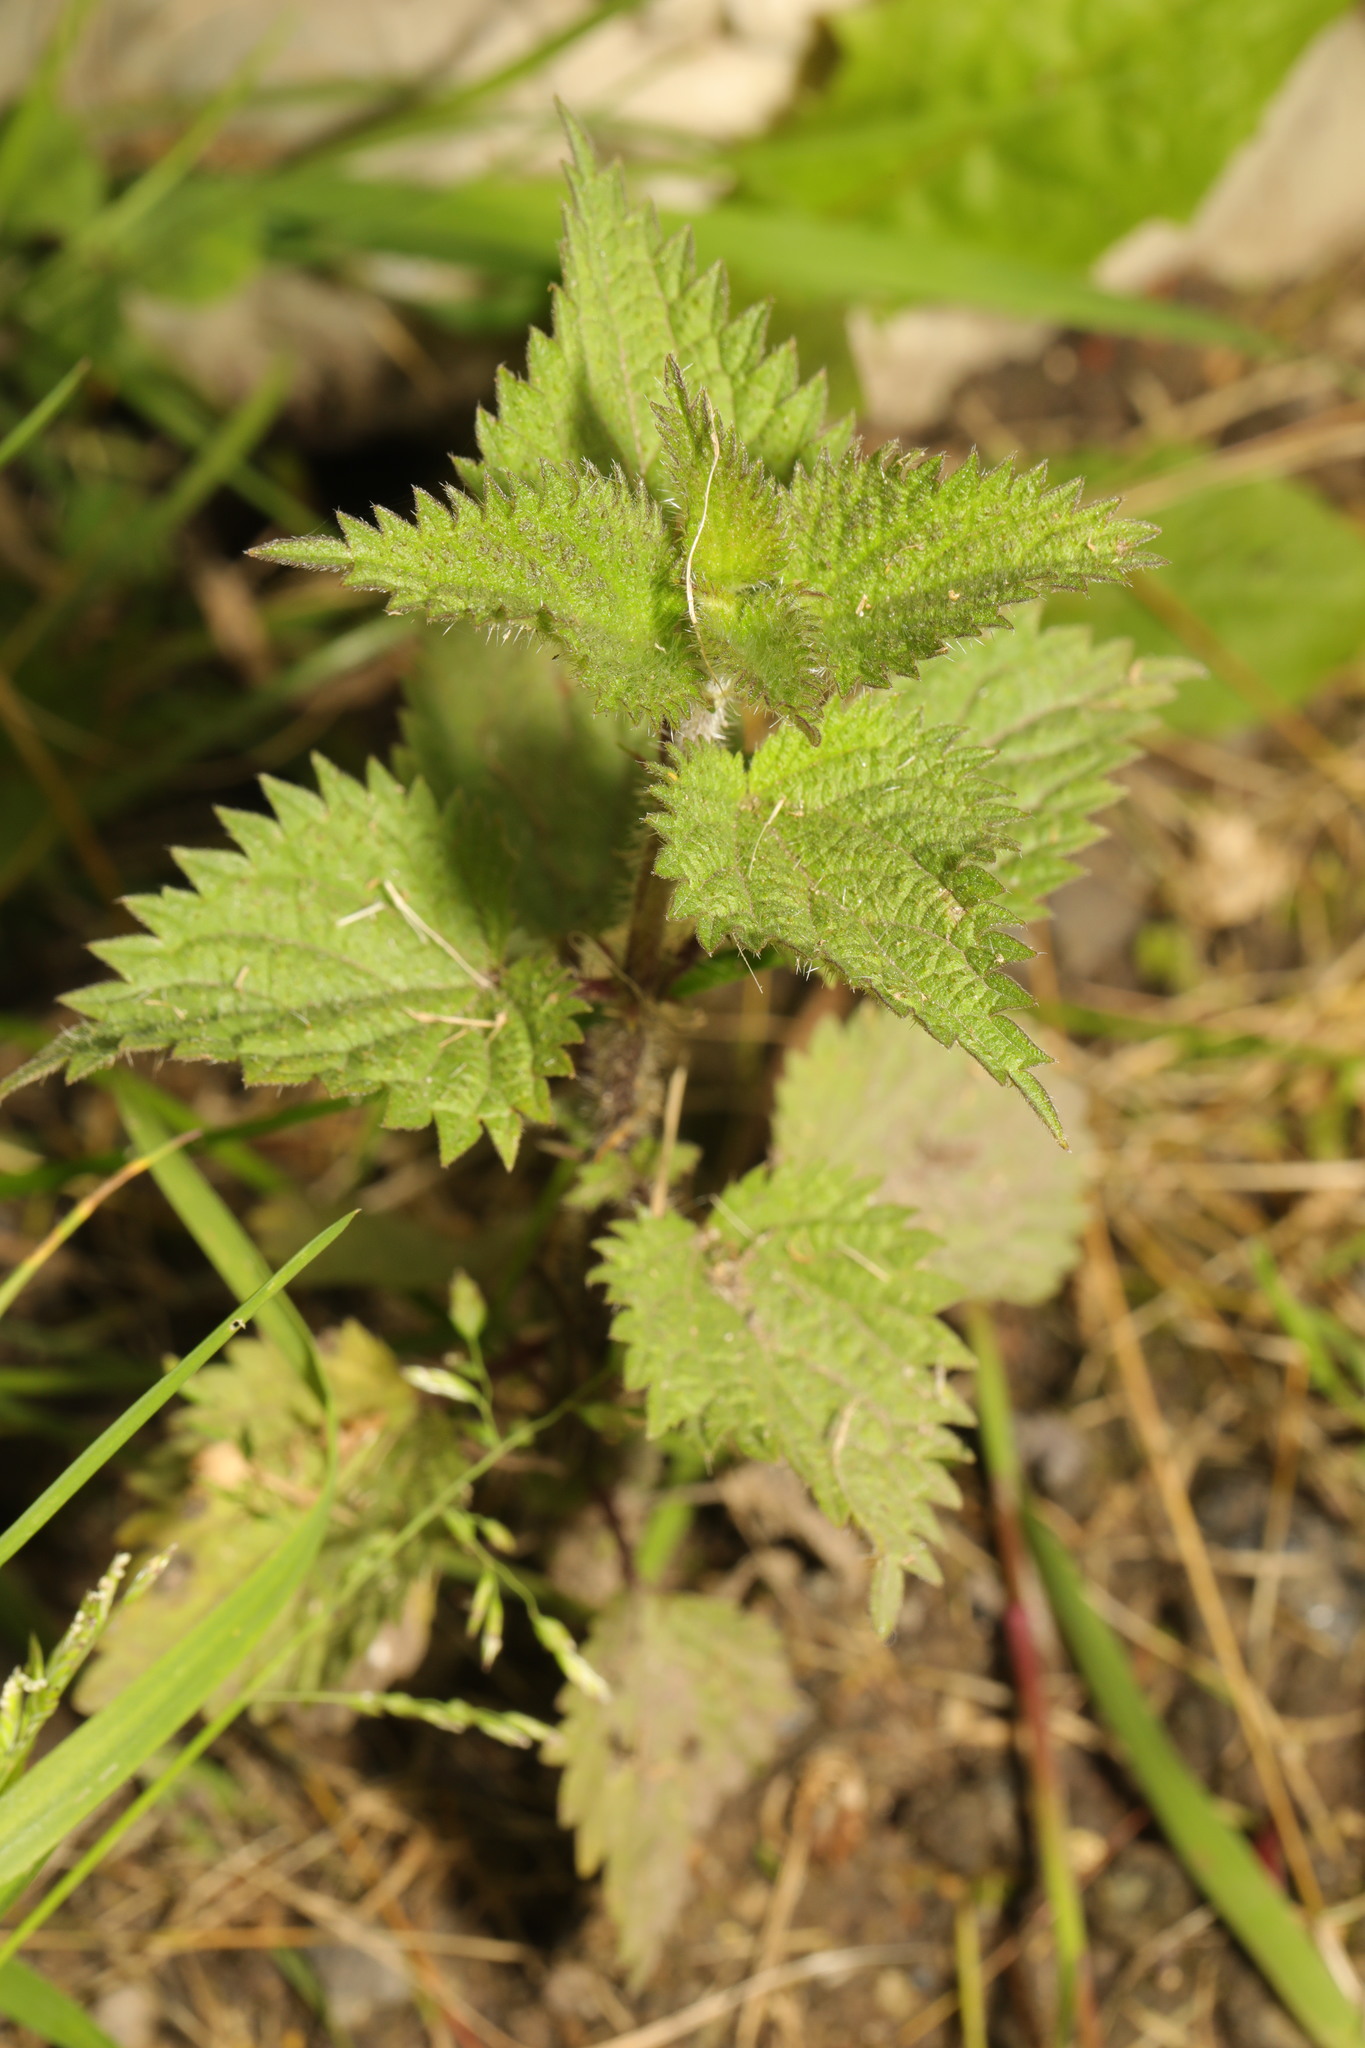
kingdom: Plantae
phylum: Tracheophyta
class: Magnoliopsida
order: Rosales
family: Urticaceae
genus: Urtica
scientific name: Urtica dioica
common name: Common nettle
